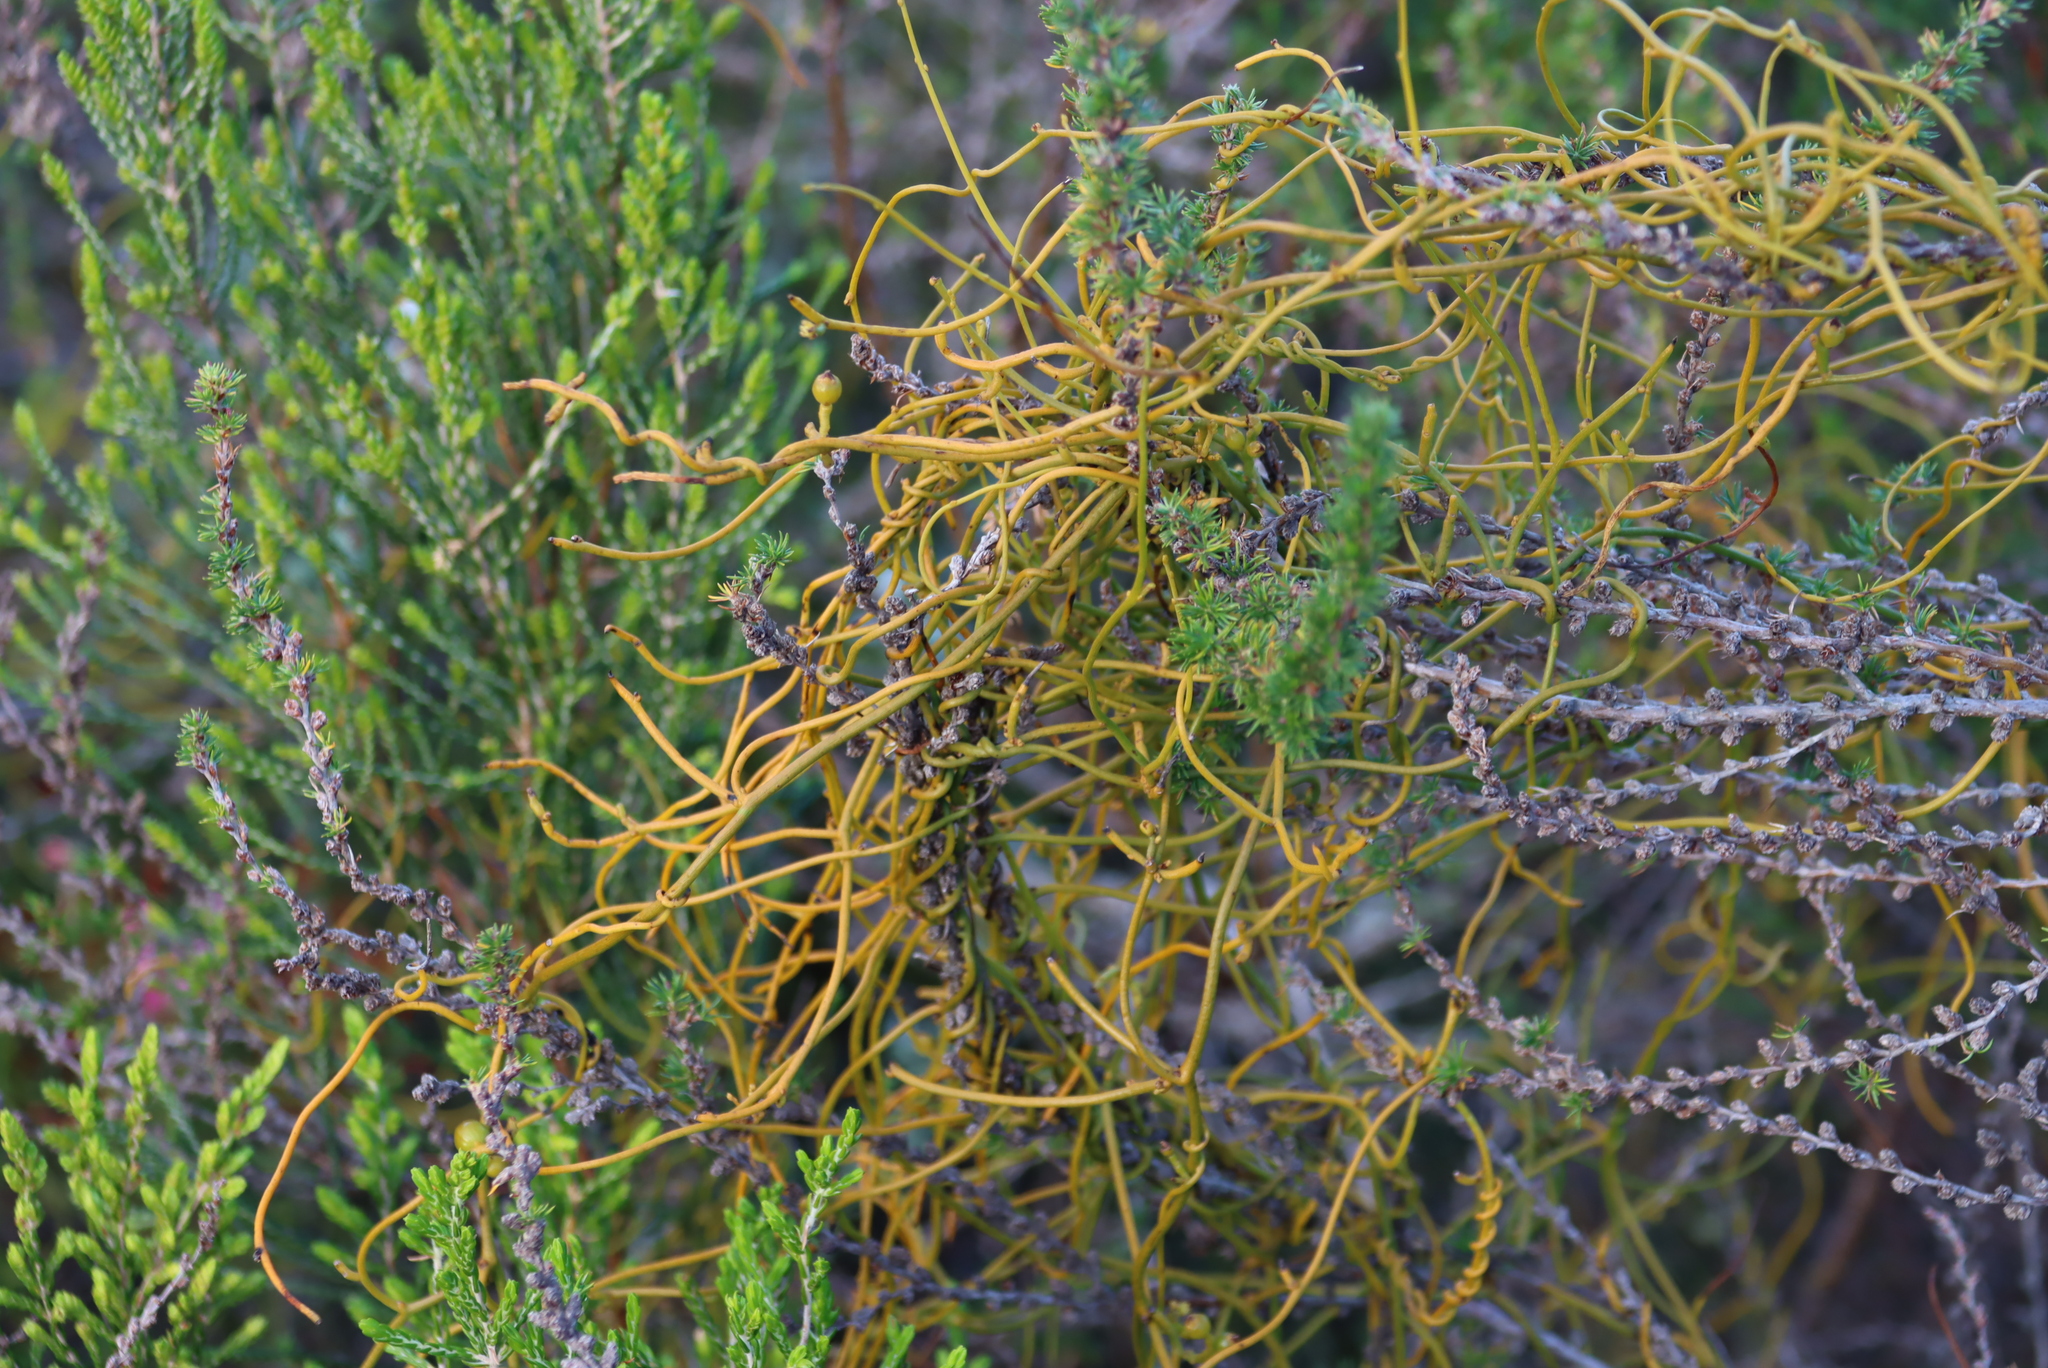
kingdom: Plantae
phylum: Tracheophyta
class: Magnoliopsida
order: Laurales
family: Lauraceae
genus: Cassytha
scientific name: Cassytha ciliolata
